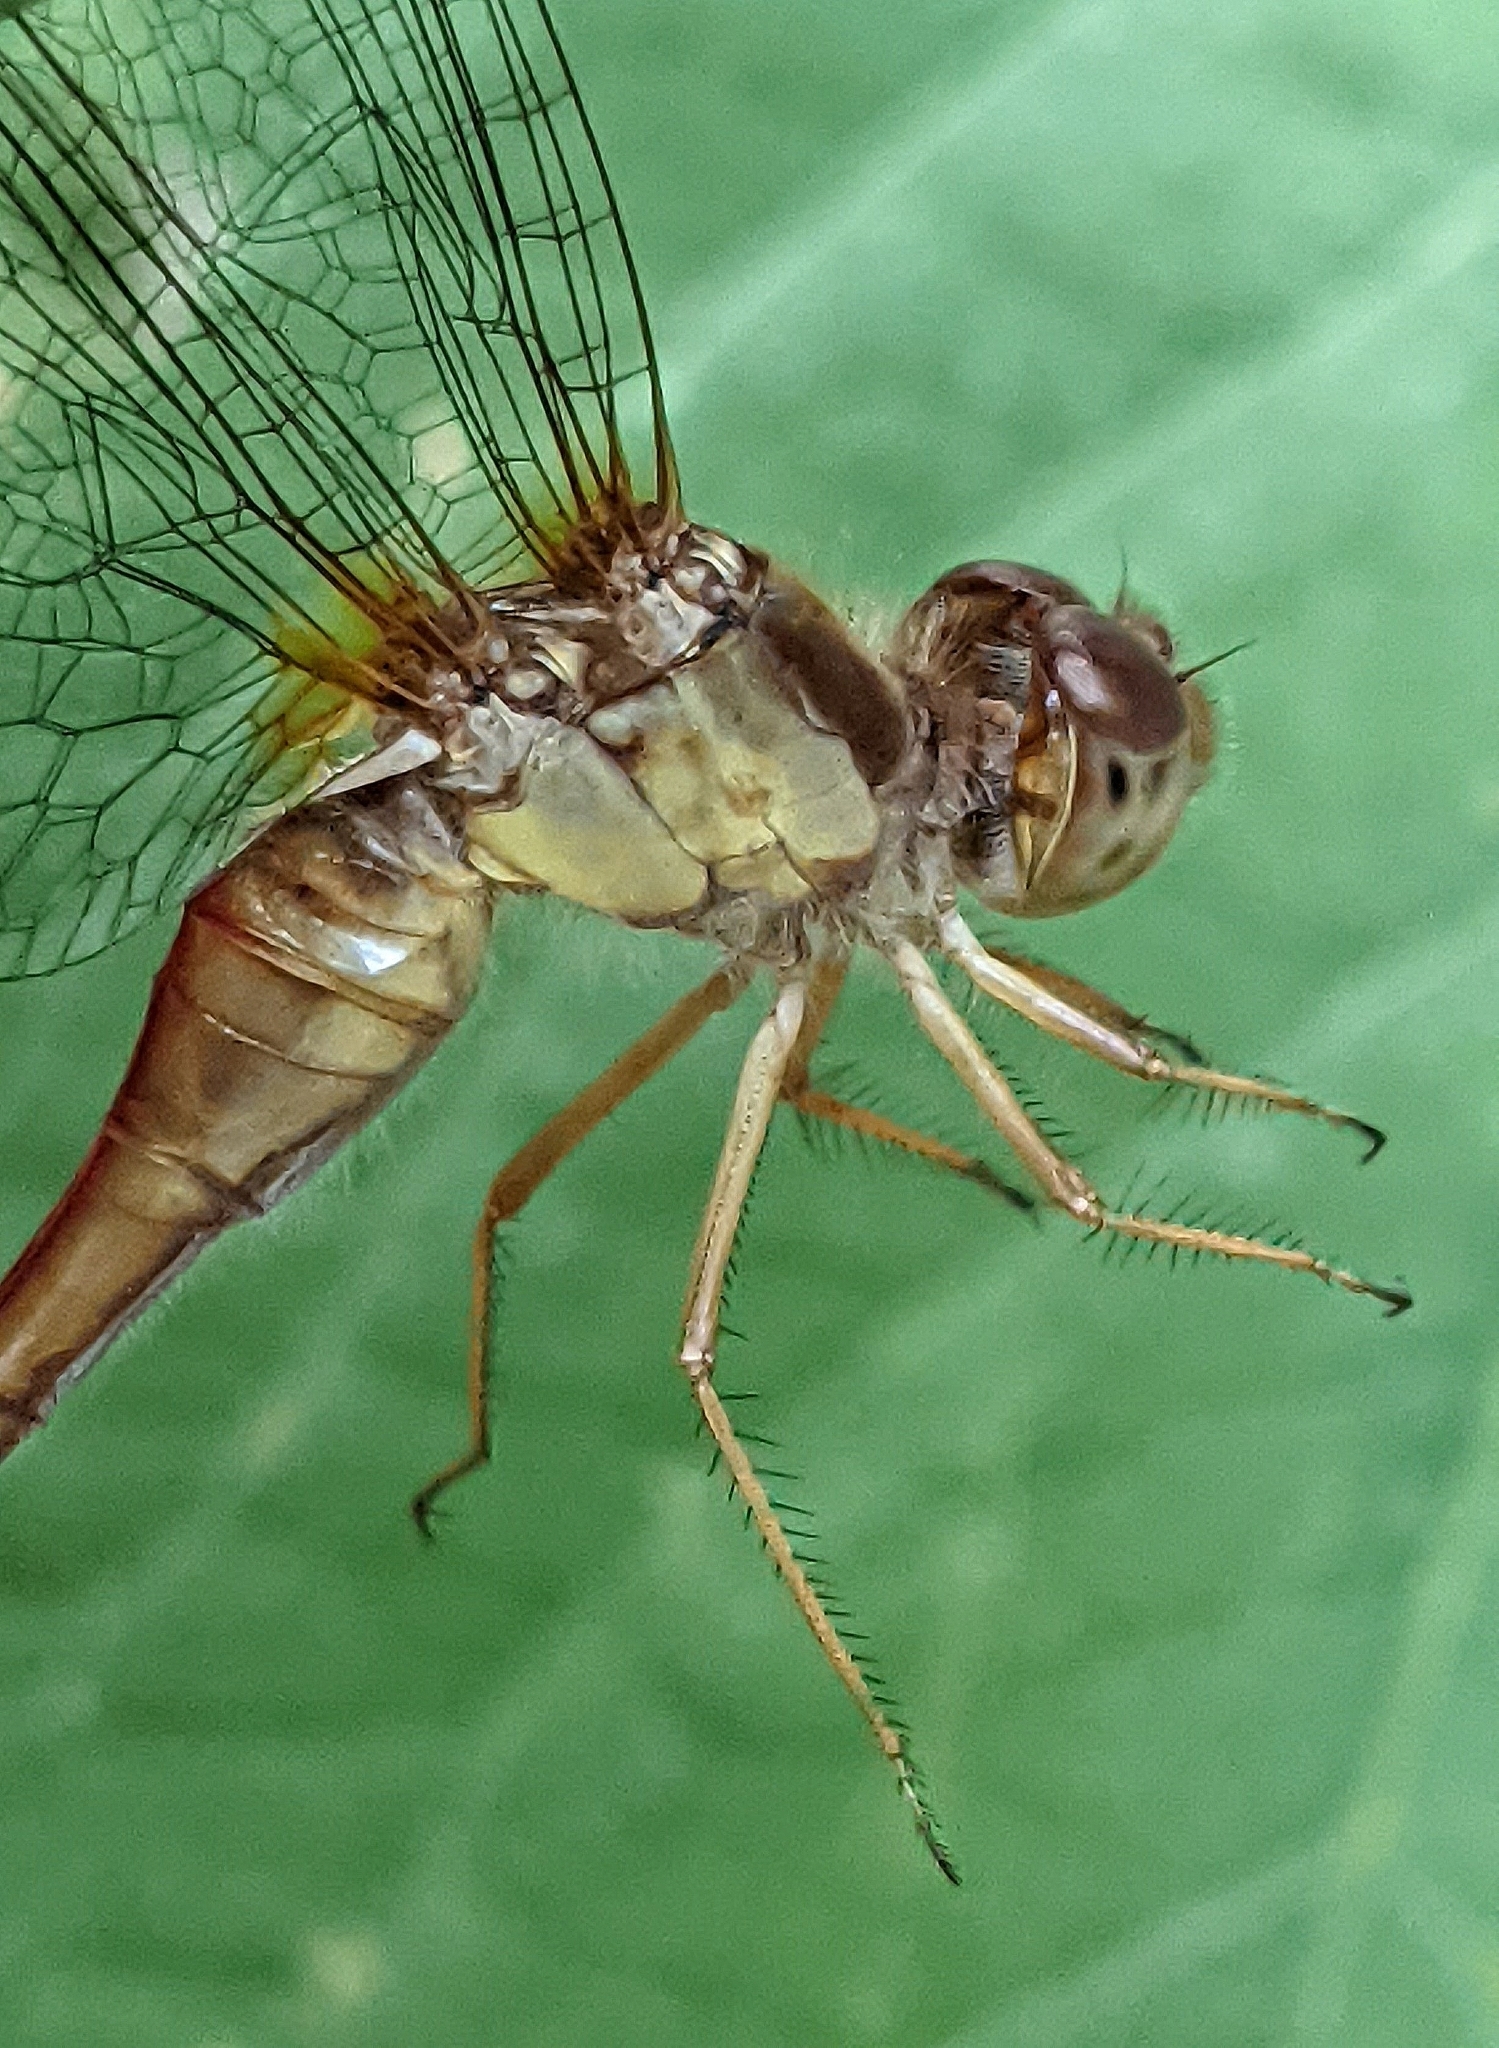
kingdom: Animalia
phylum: Arthropoda
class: Insecta
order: Odonata
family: Libellulidae
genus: Sympetrum
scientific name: Sympetrum vicinum
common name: Autumn meadowhawk
